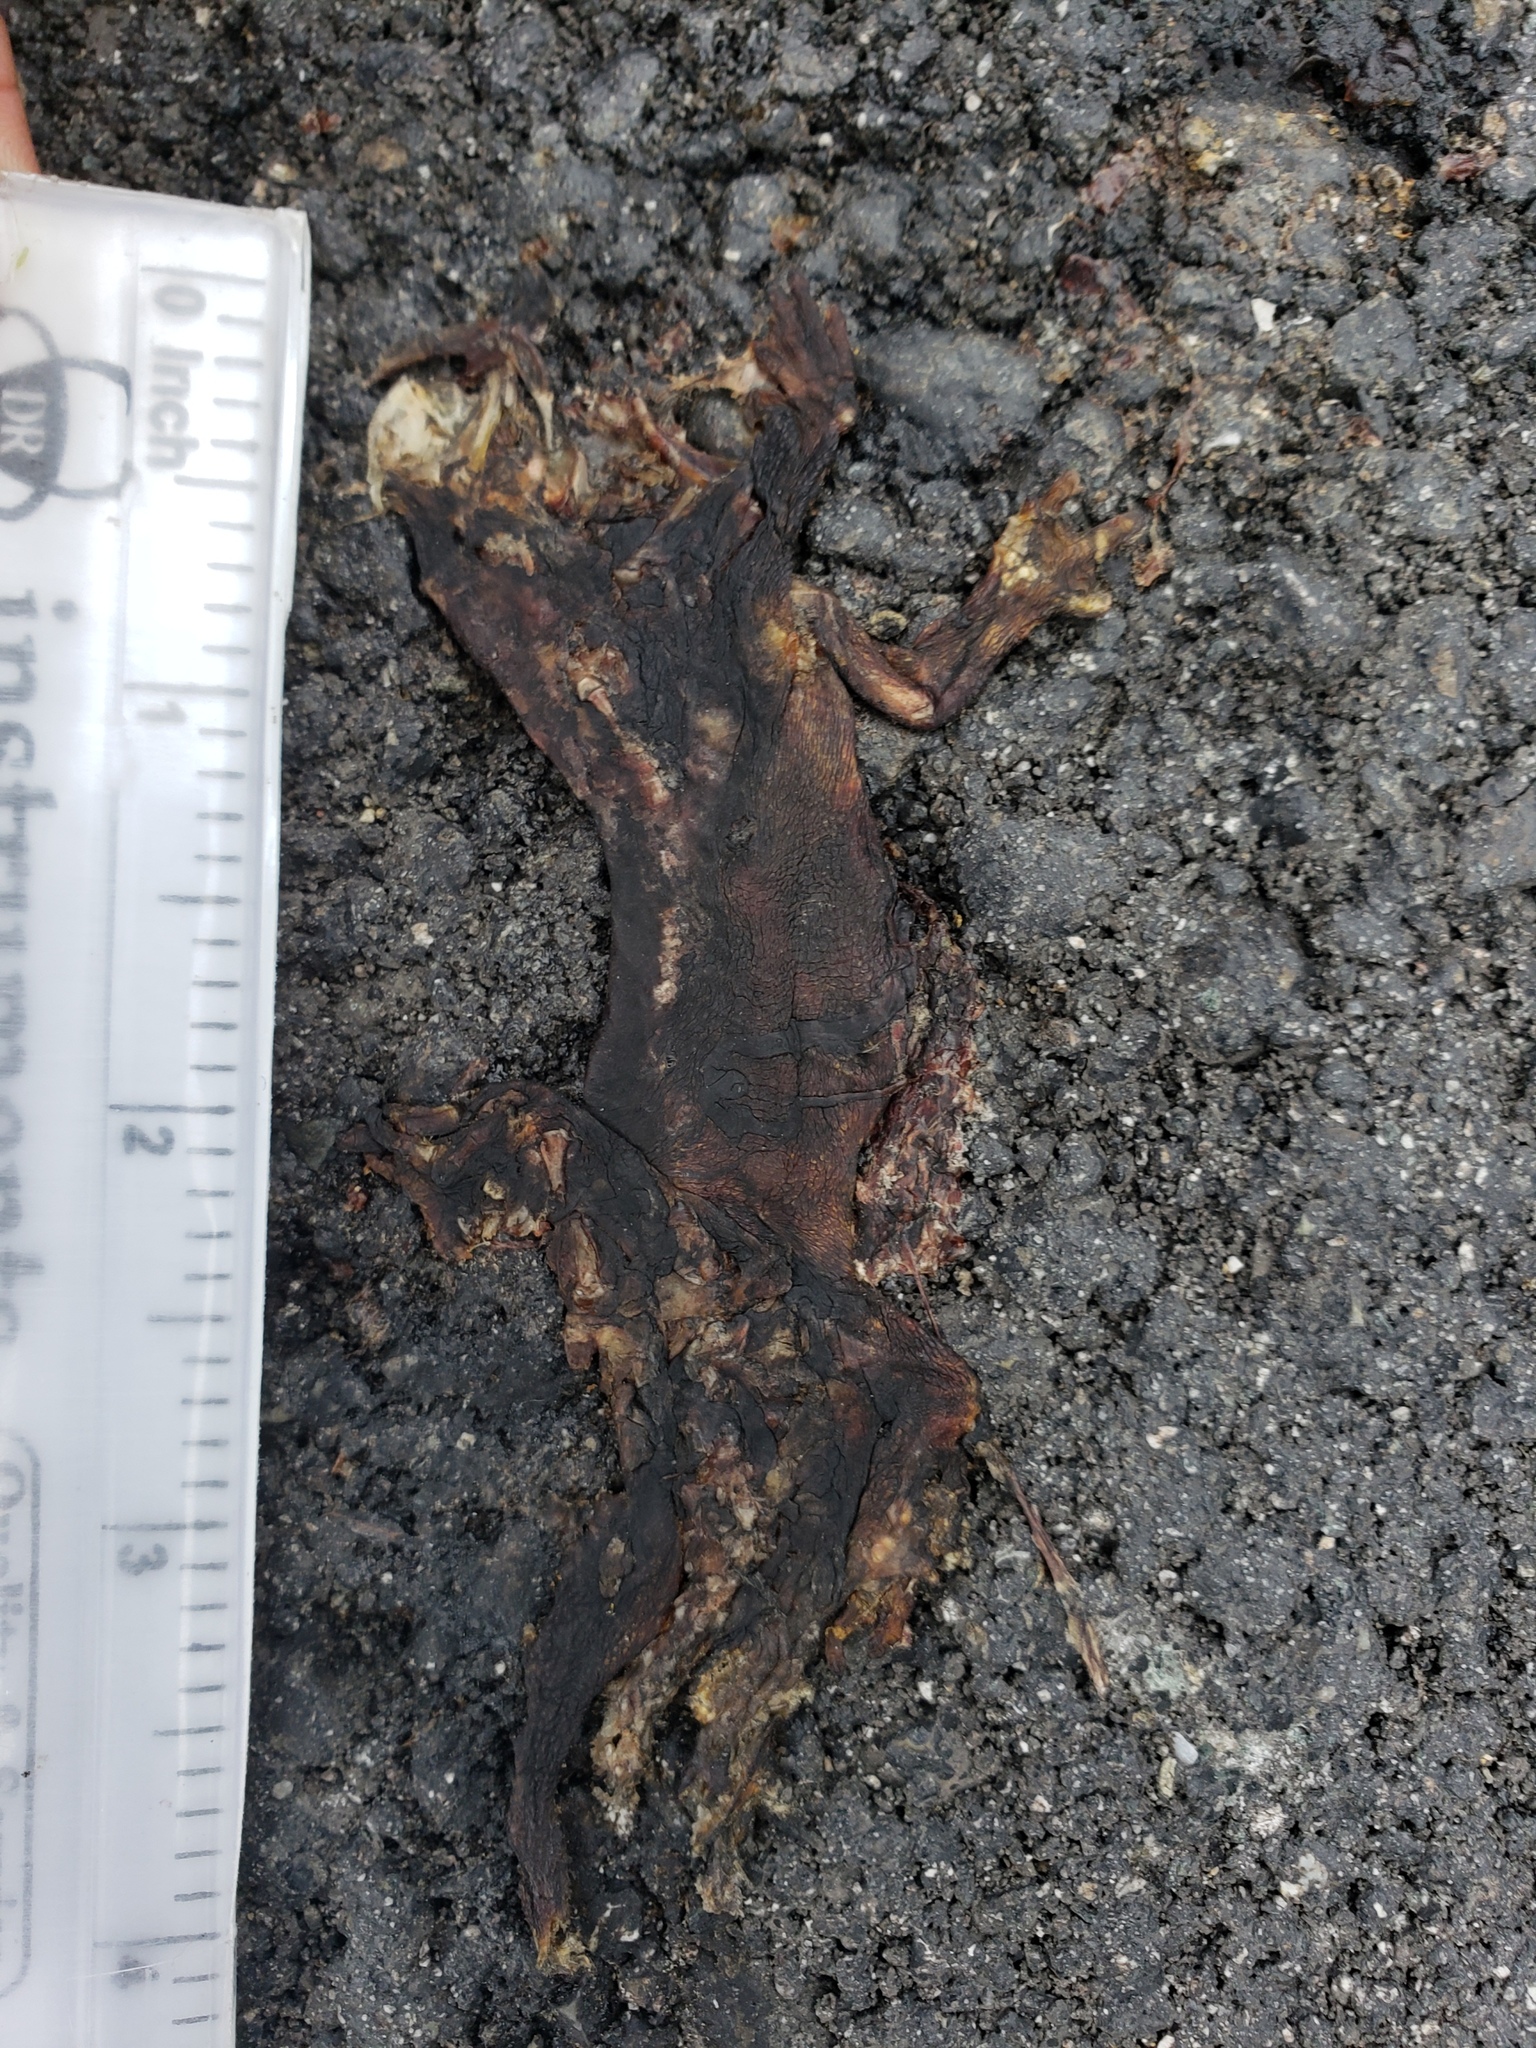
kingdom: Animalia
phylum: Chordata
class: Amphibia
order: Caudata
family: Salamandridae
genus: Taricha
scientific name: Taricha
